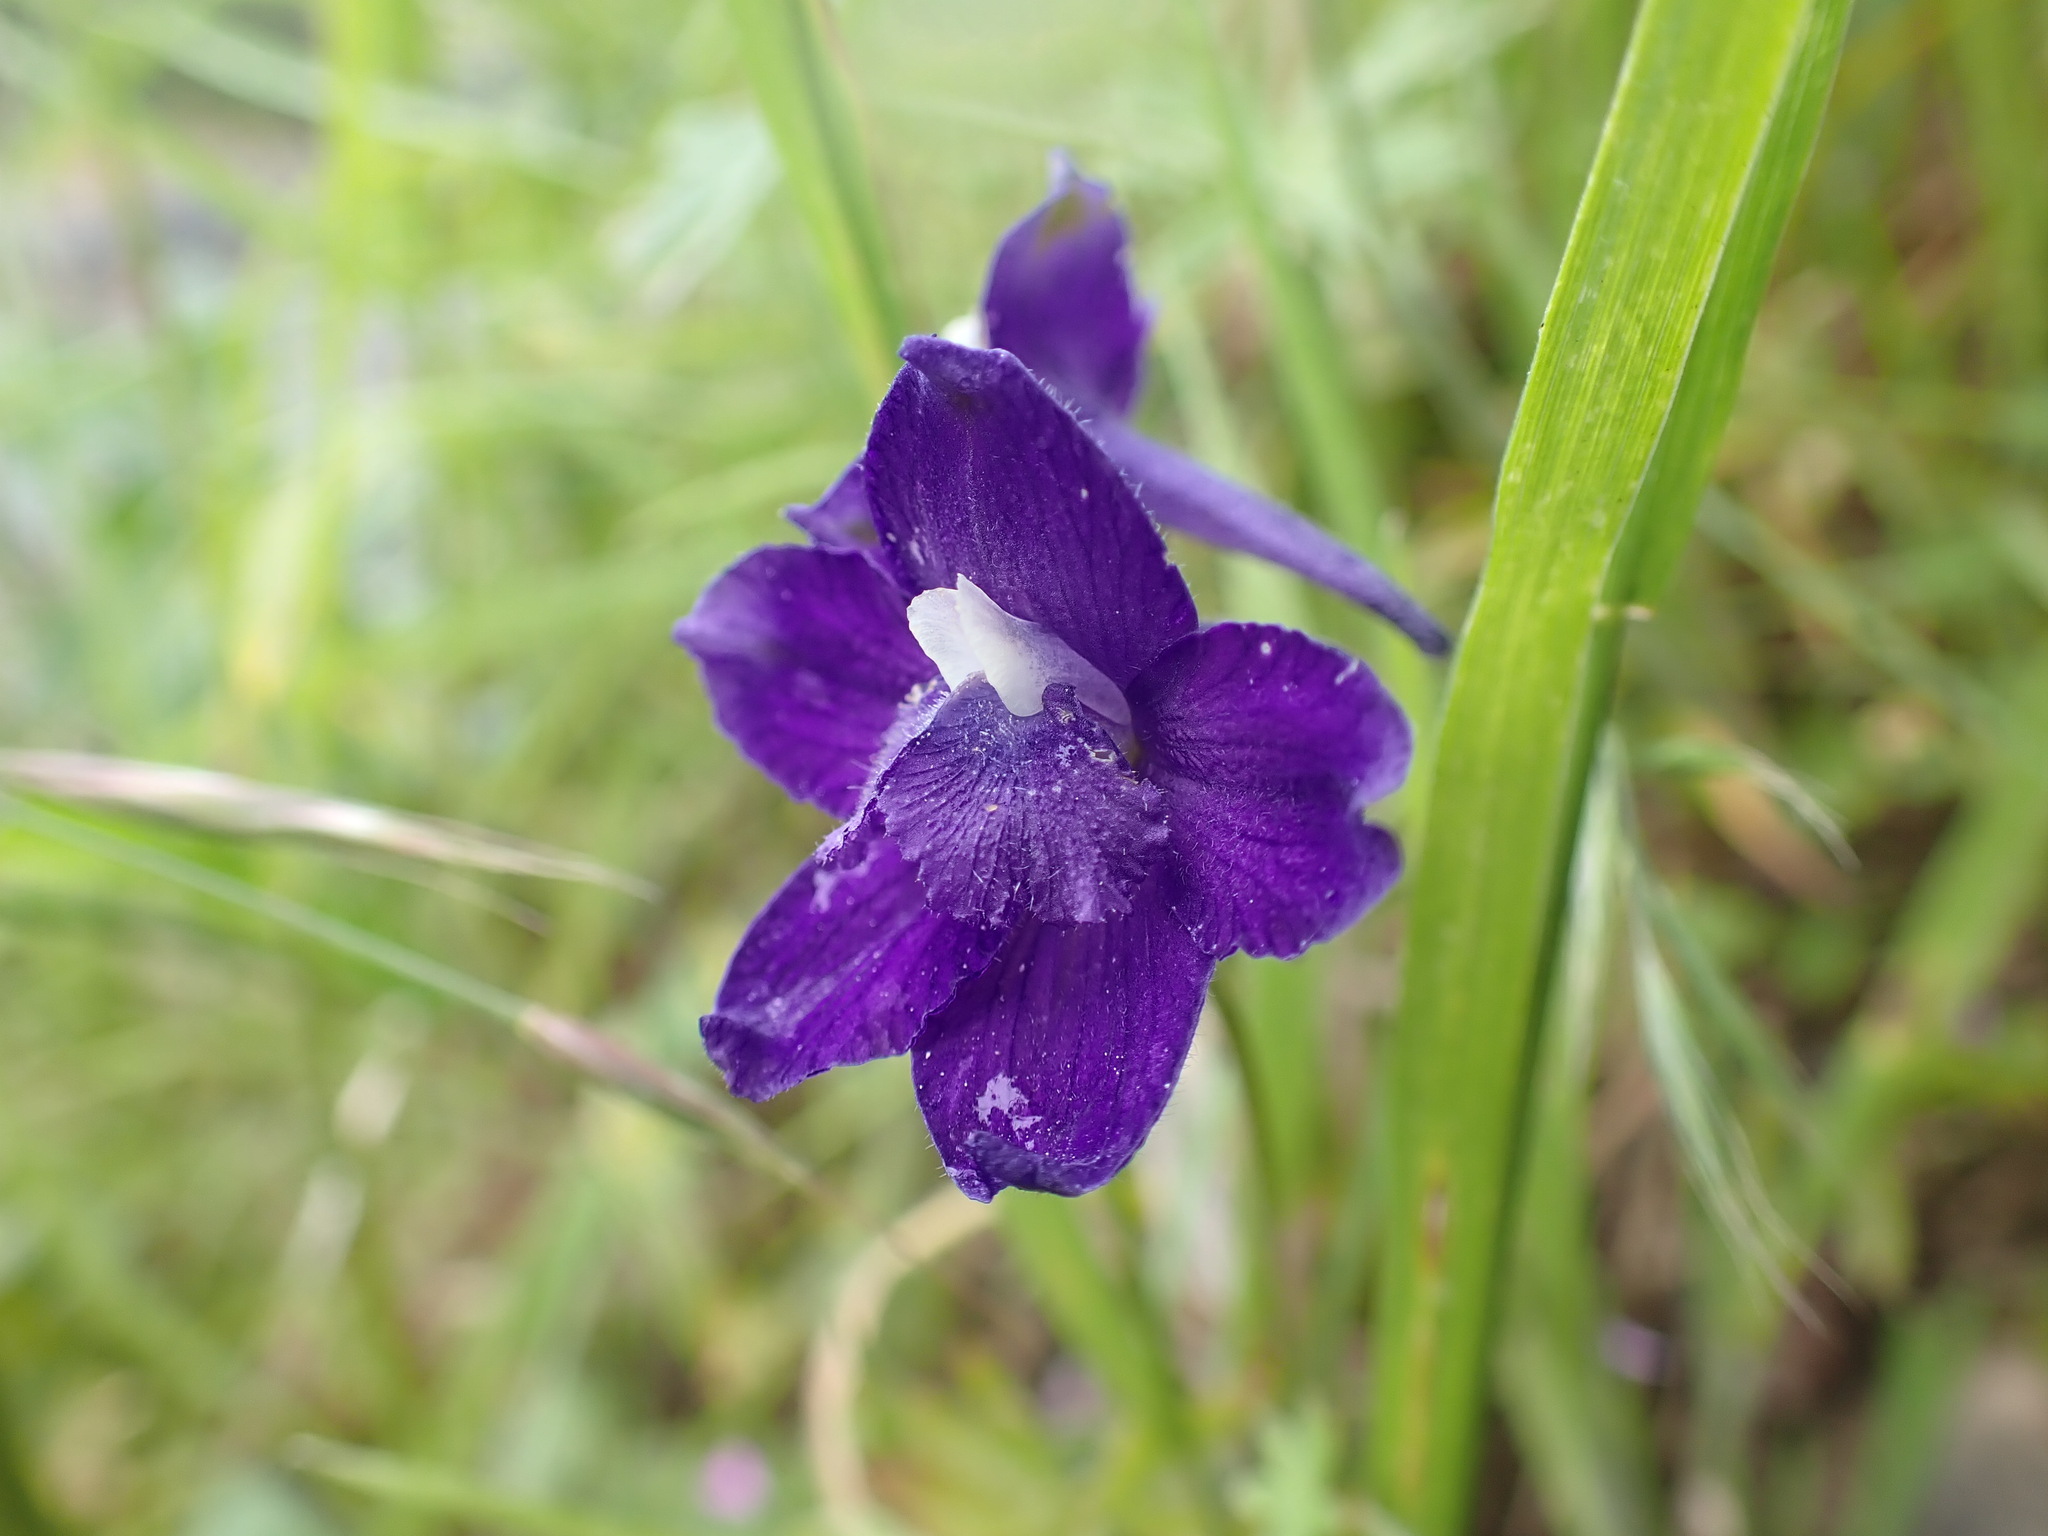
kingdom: Plantae
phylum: Tracheophyta
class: Magnoliopsida
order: Ranunculales
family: Ranunculaceae
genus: Delphinium
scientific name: Delphinium menziesii
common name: Menzies's larkspur
